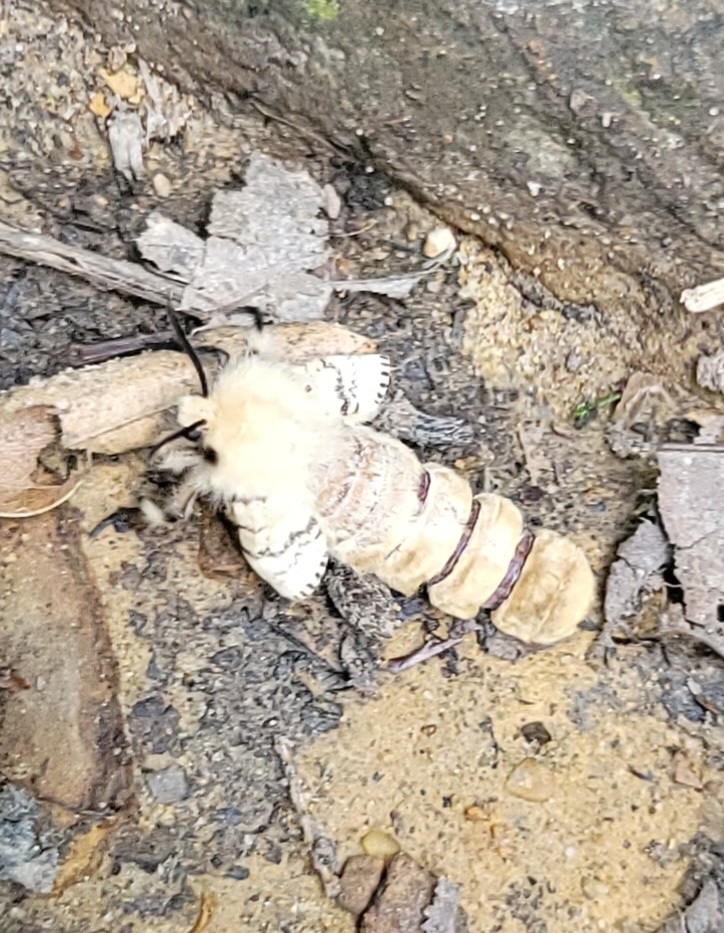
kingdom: Animalia
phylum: Arthropoda
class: Insecta
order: Lepidoptera
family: Erebidae
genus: Lymantria
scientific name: Lymantria dispar
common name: Gypsy moth
